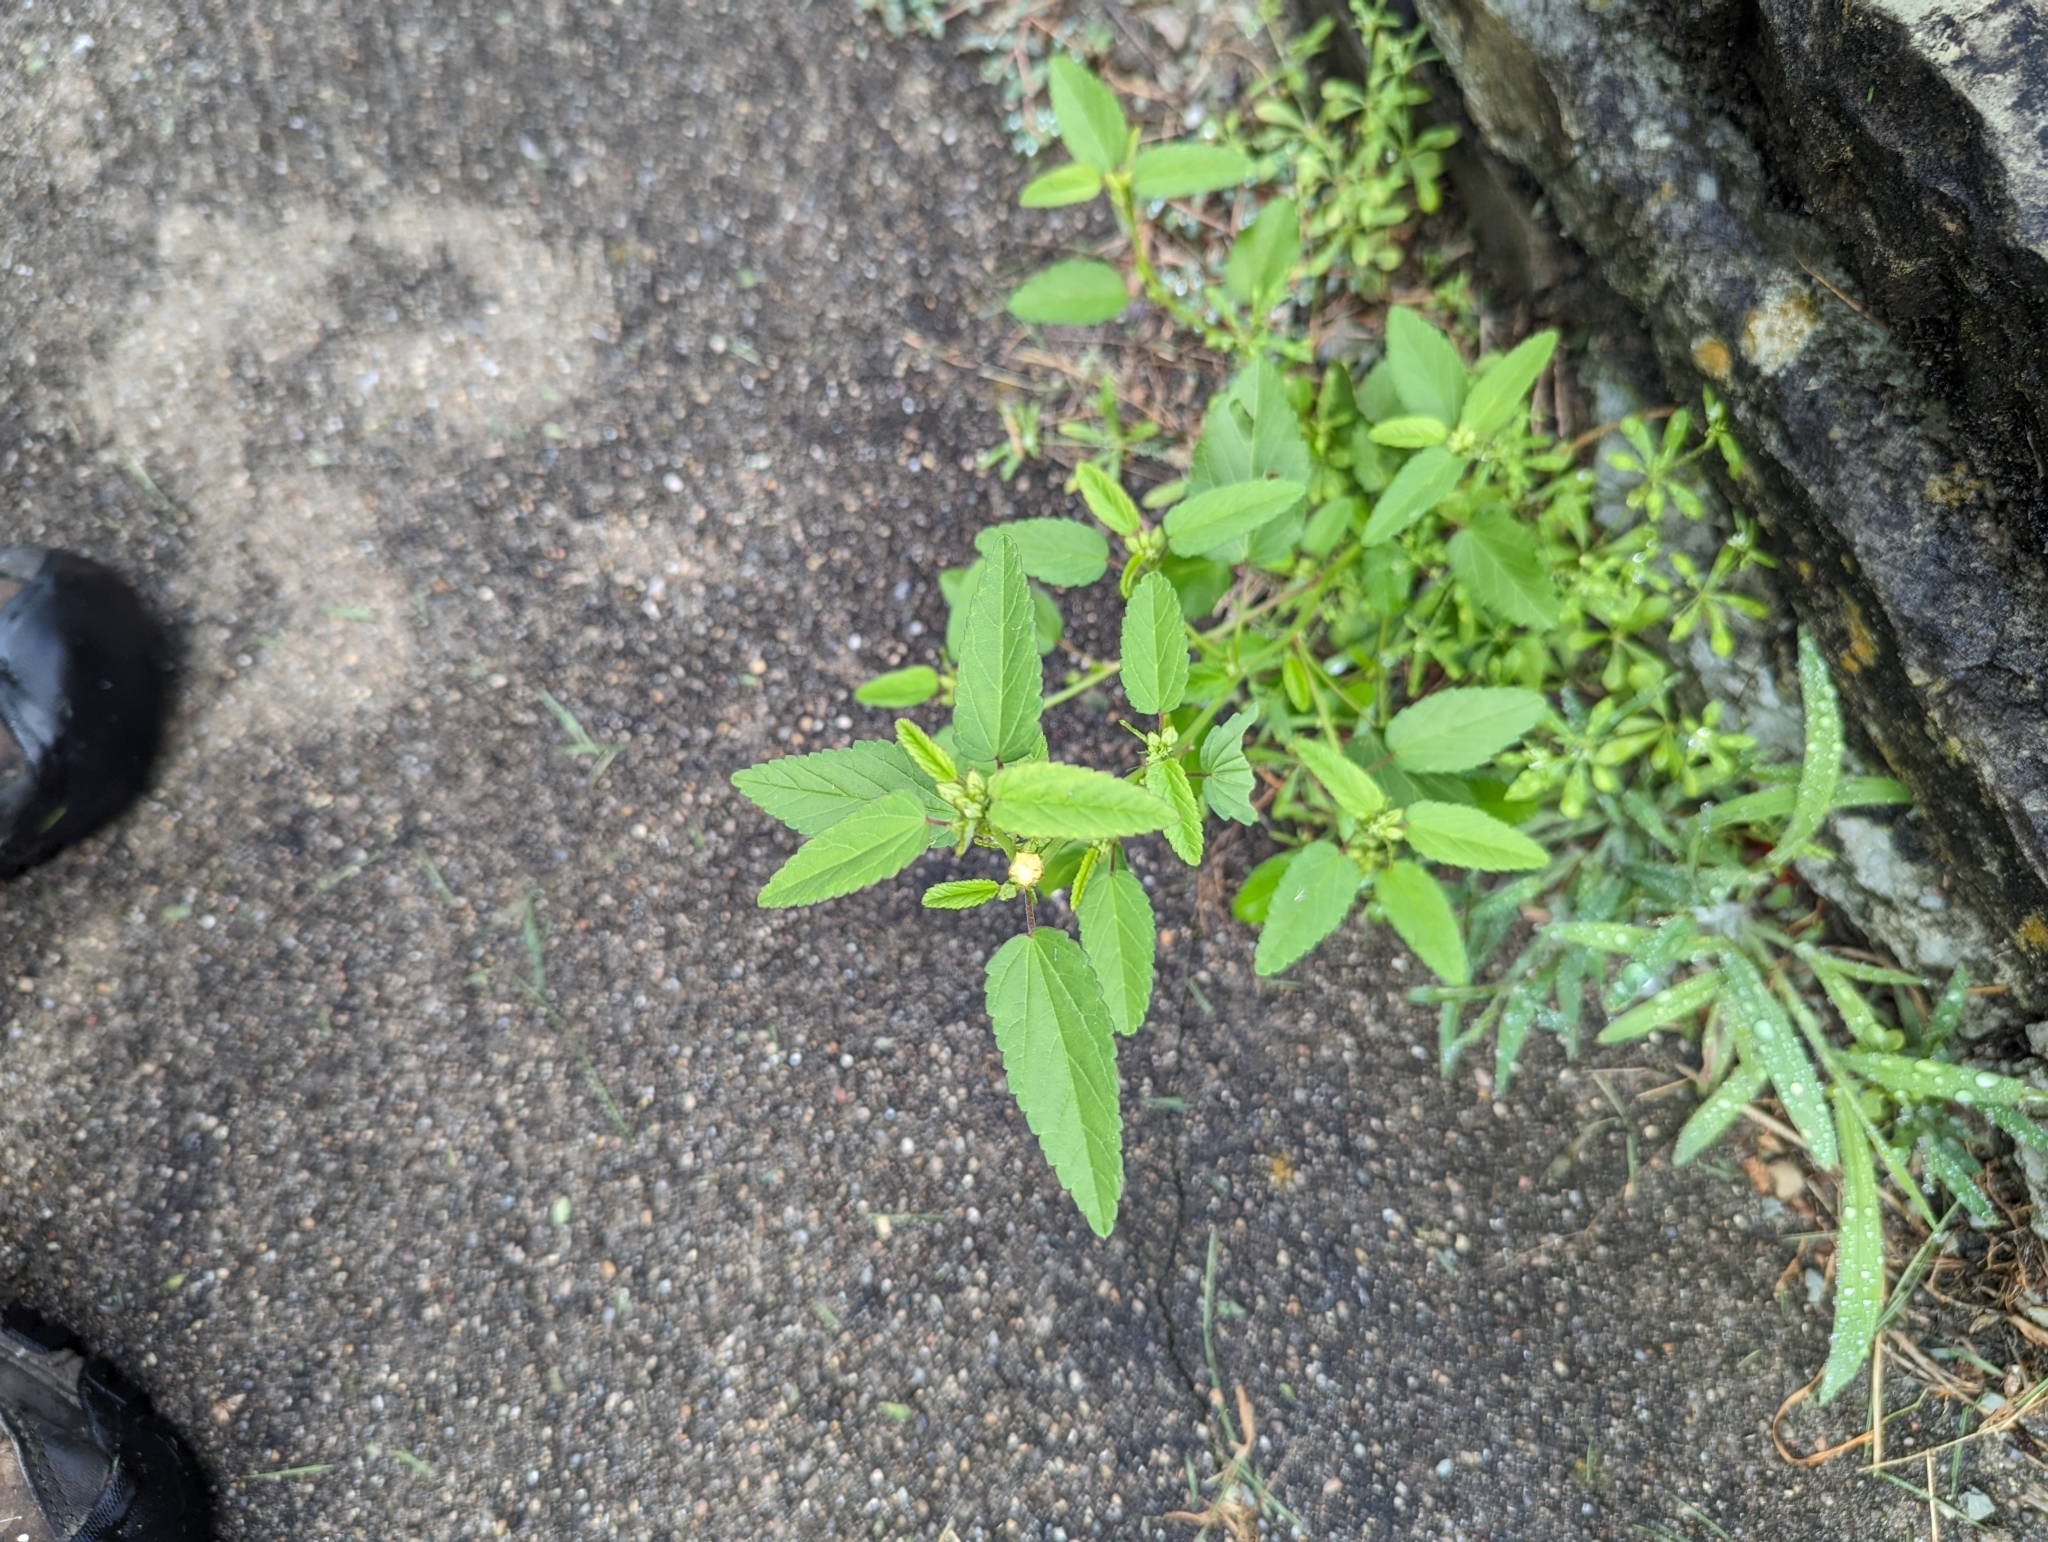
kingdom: Plantae
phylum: Tracheophyta
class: Magnoliopsida
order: Malvales
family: Malvaceae
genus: Sida
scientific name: Sida spinosa
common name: Prickly fanpetals
